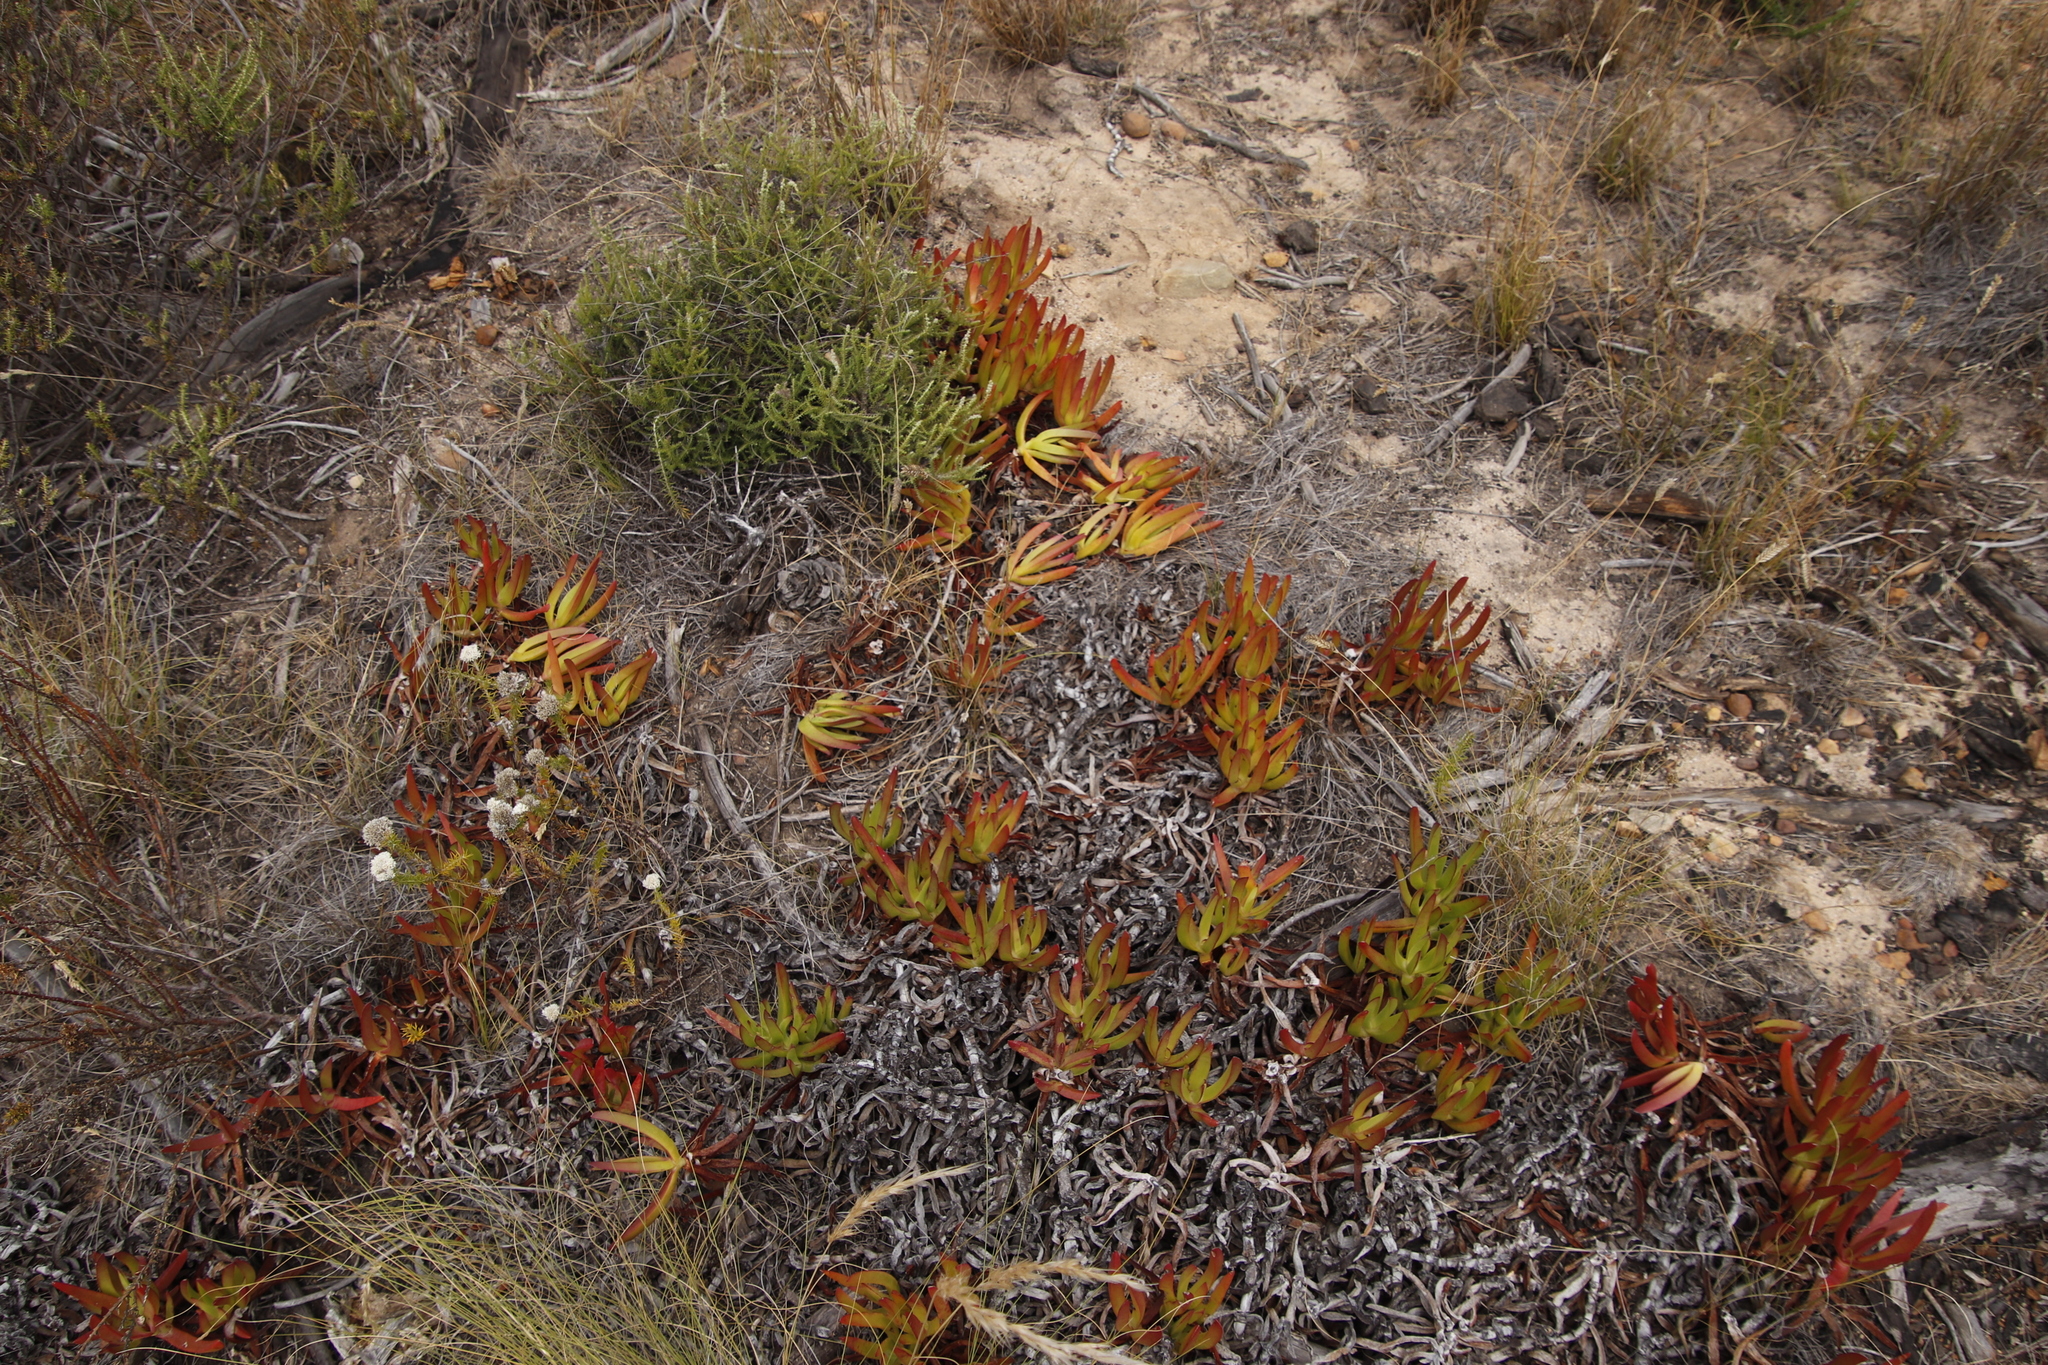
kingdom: Plantae
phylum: Tracheophyta
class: Magnoliopsida
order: Caryophyllales
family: Aizoaceae
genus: Carpobrotus
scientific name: Carpobrotus edulis
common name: Hottentot-fig
